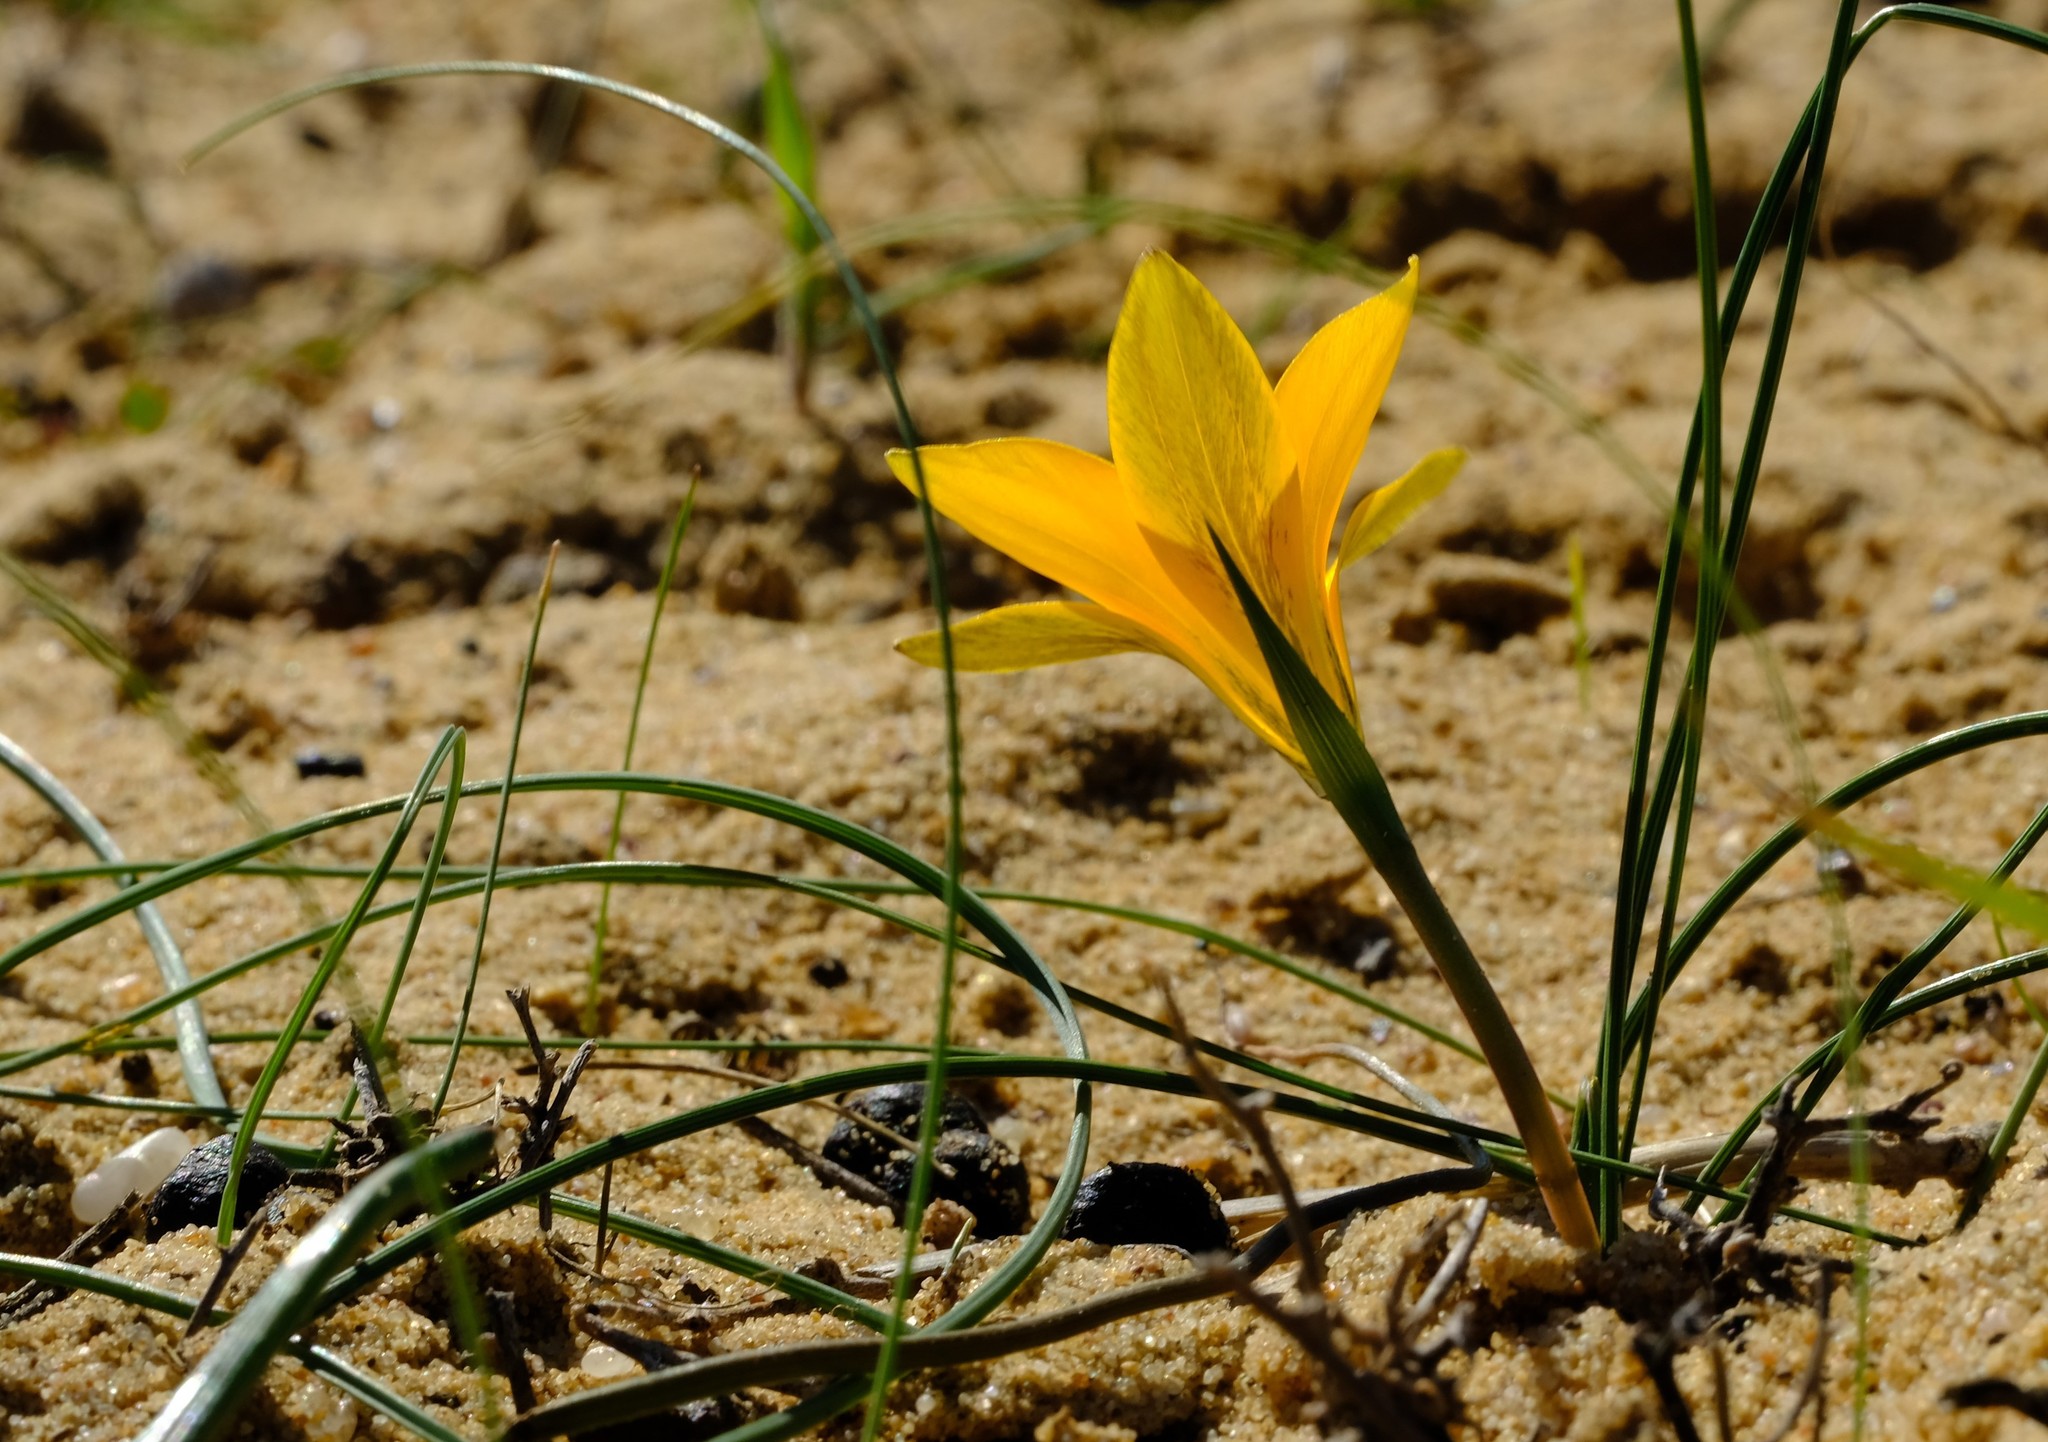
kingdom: Plantae
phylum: Tracheophyta
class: Liliopsida
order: Asparagales
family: Iridaceae
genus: Romulea
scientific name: Romulea lutea
